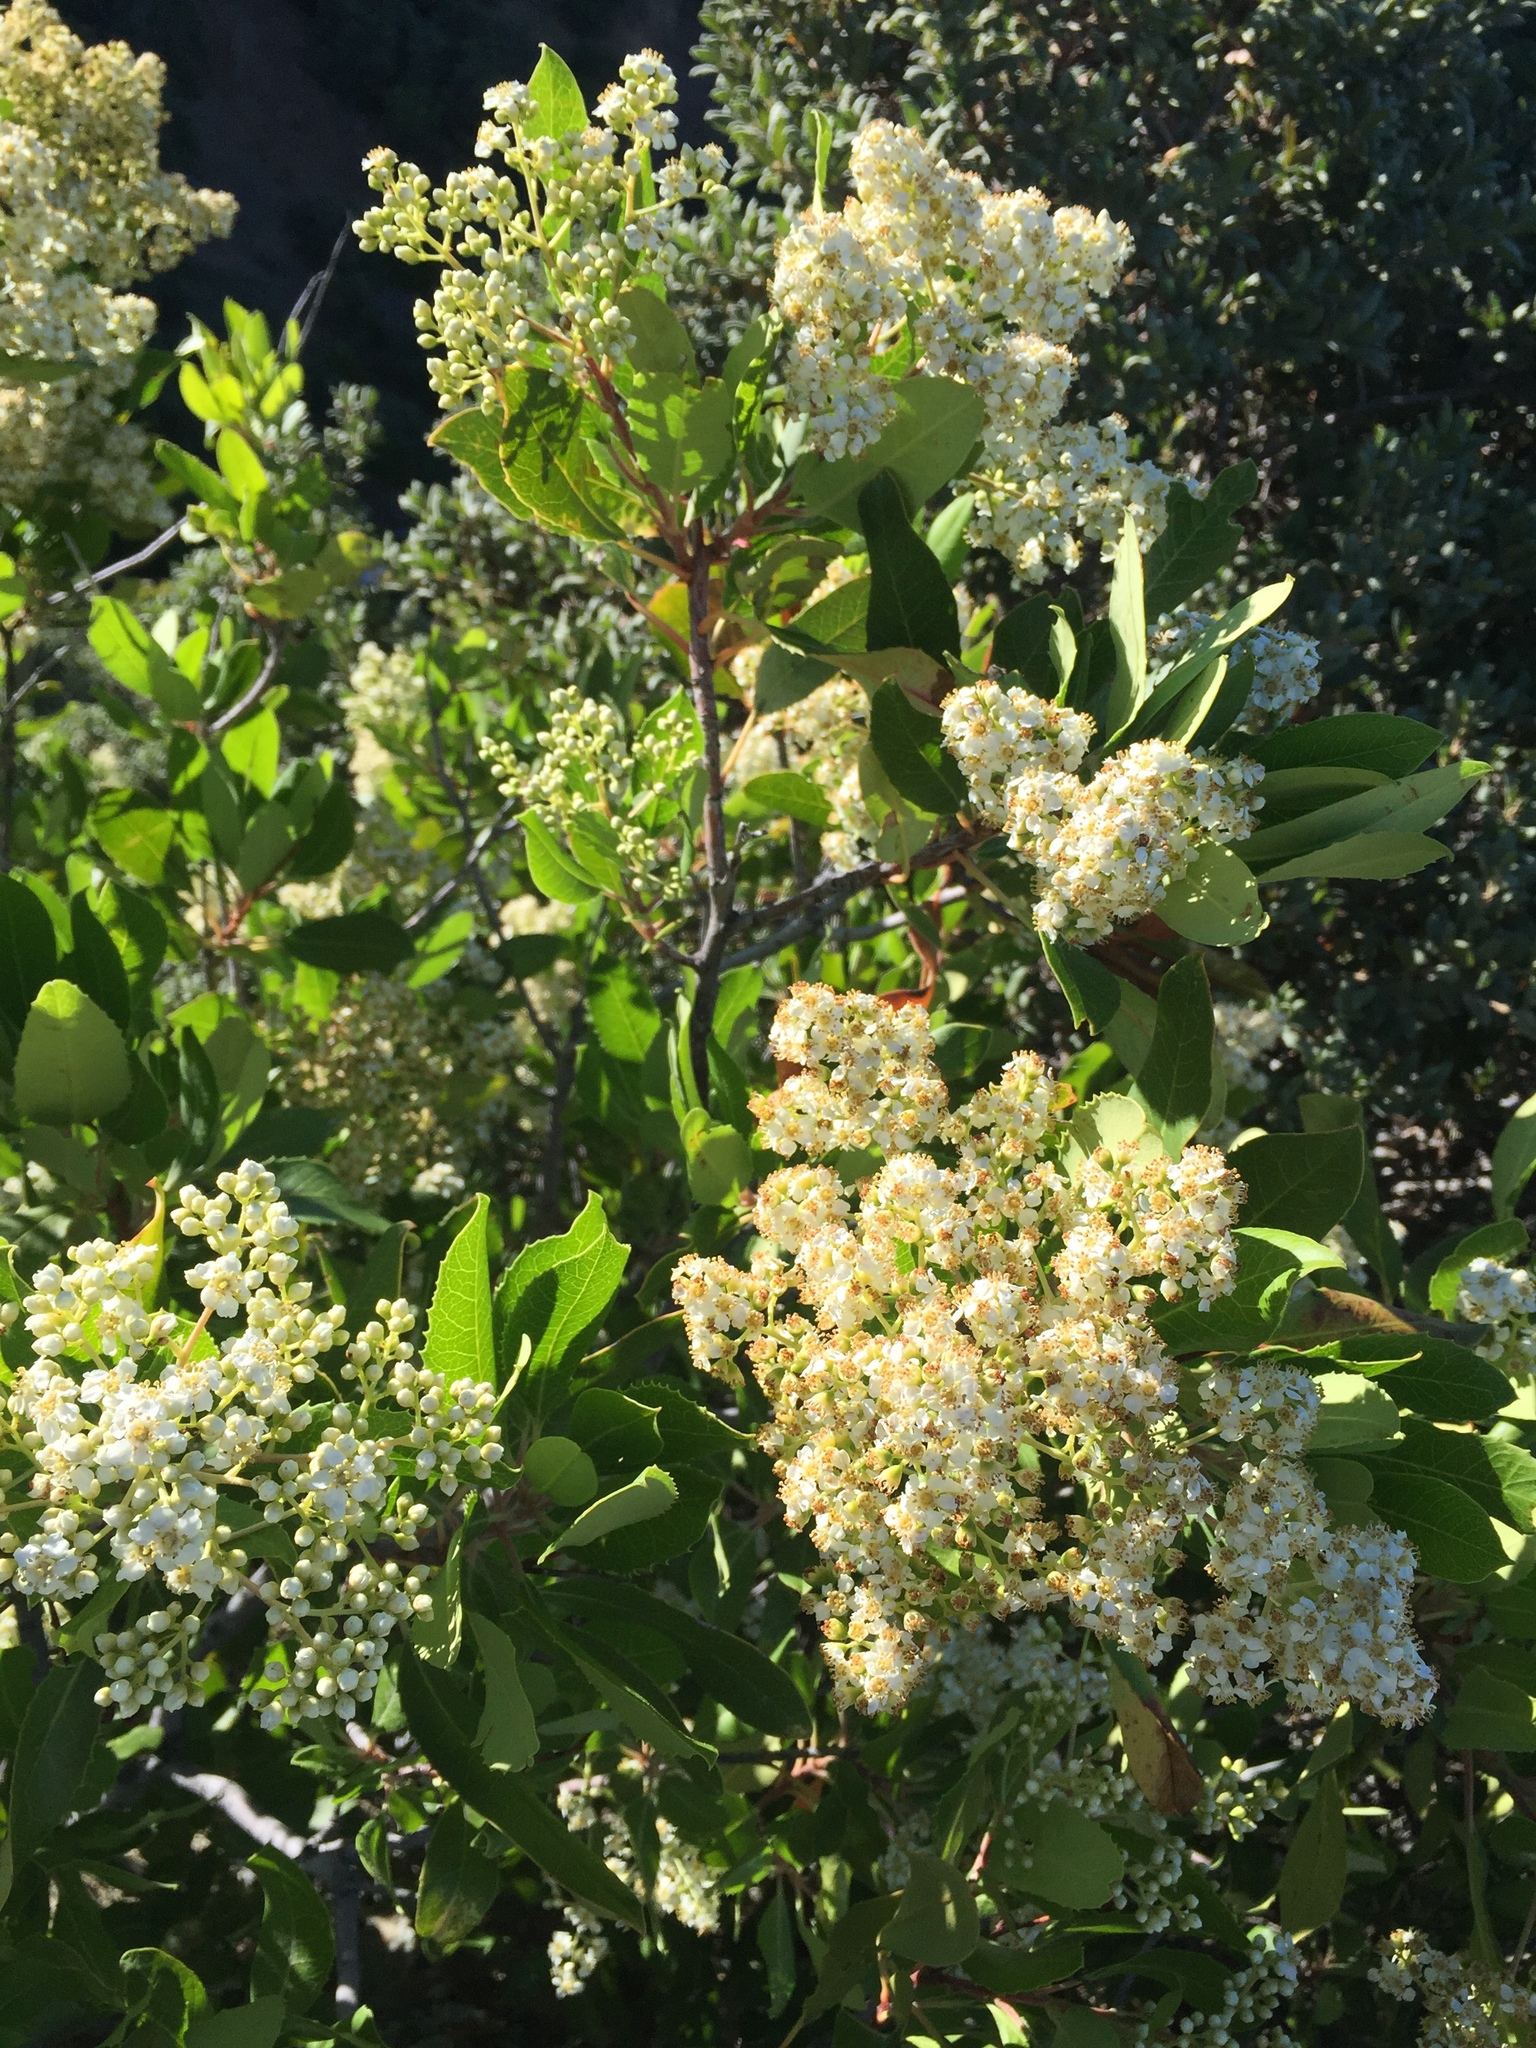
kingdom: Plantae
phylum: Tracheophyta
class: Magnoliopsida
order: Rosales
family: Rosaceae
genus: Heteromeles
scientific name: Heteromeles arbutifolia
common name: California-holly
